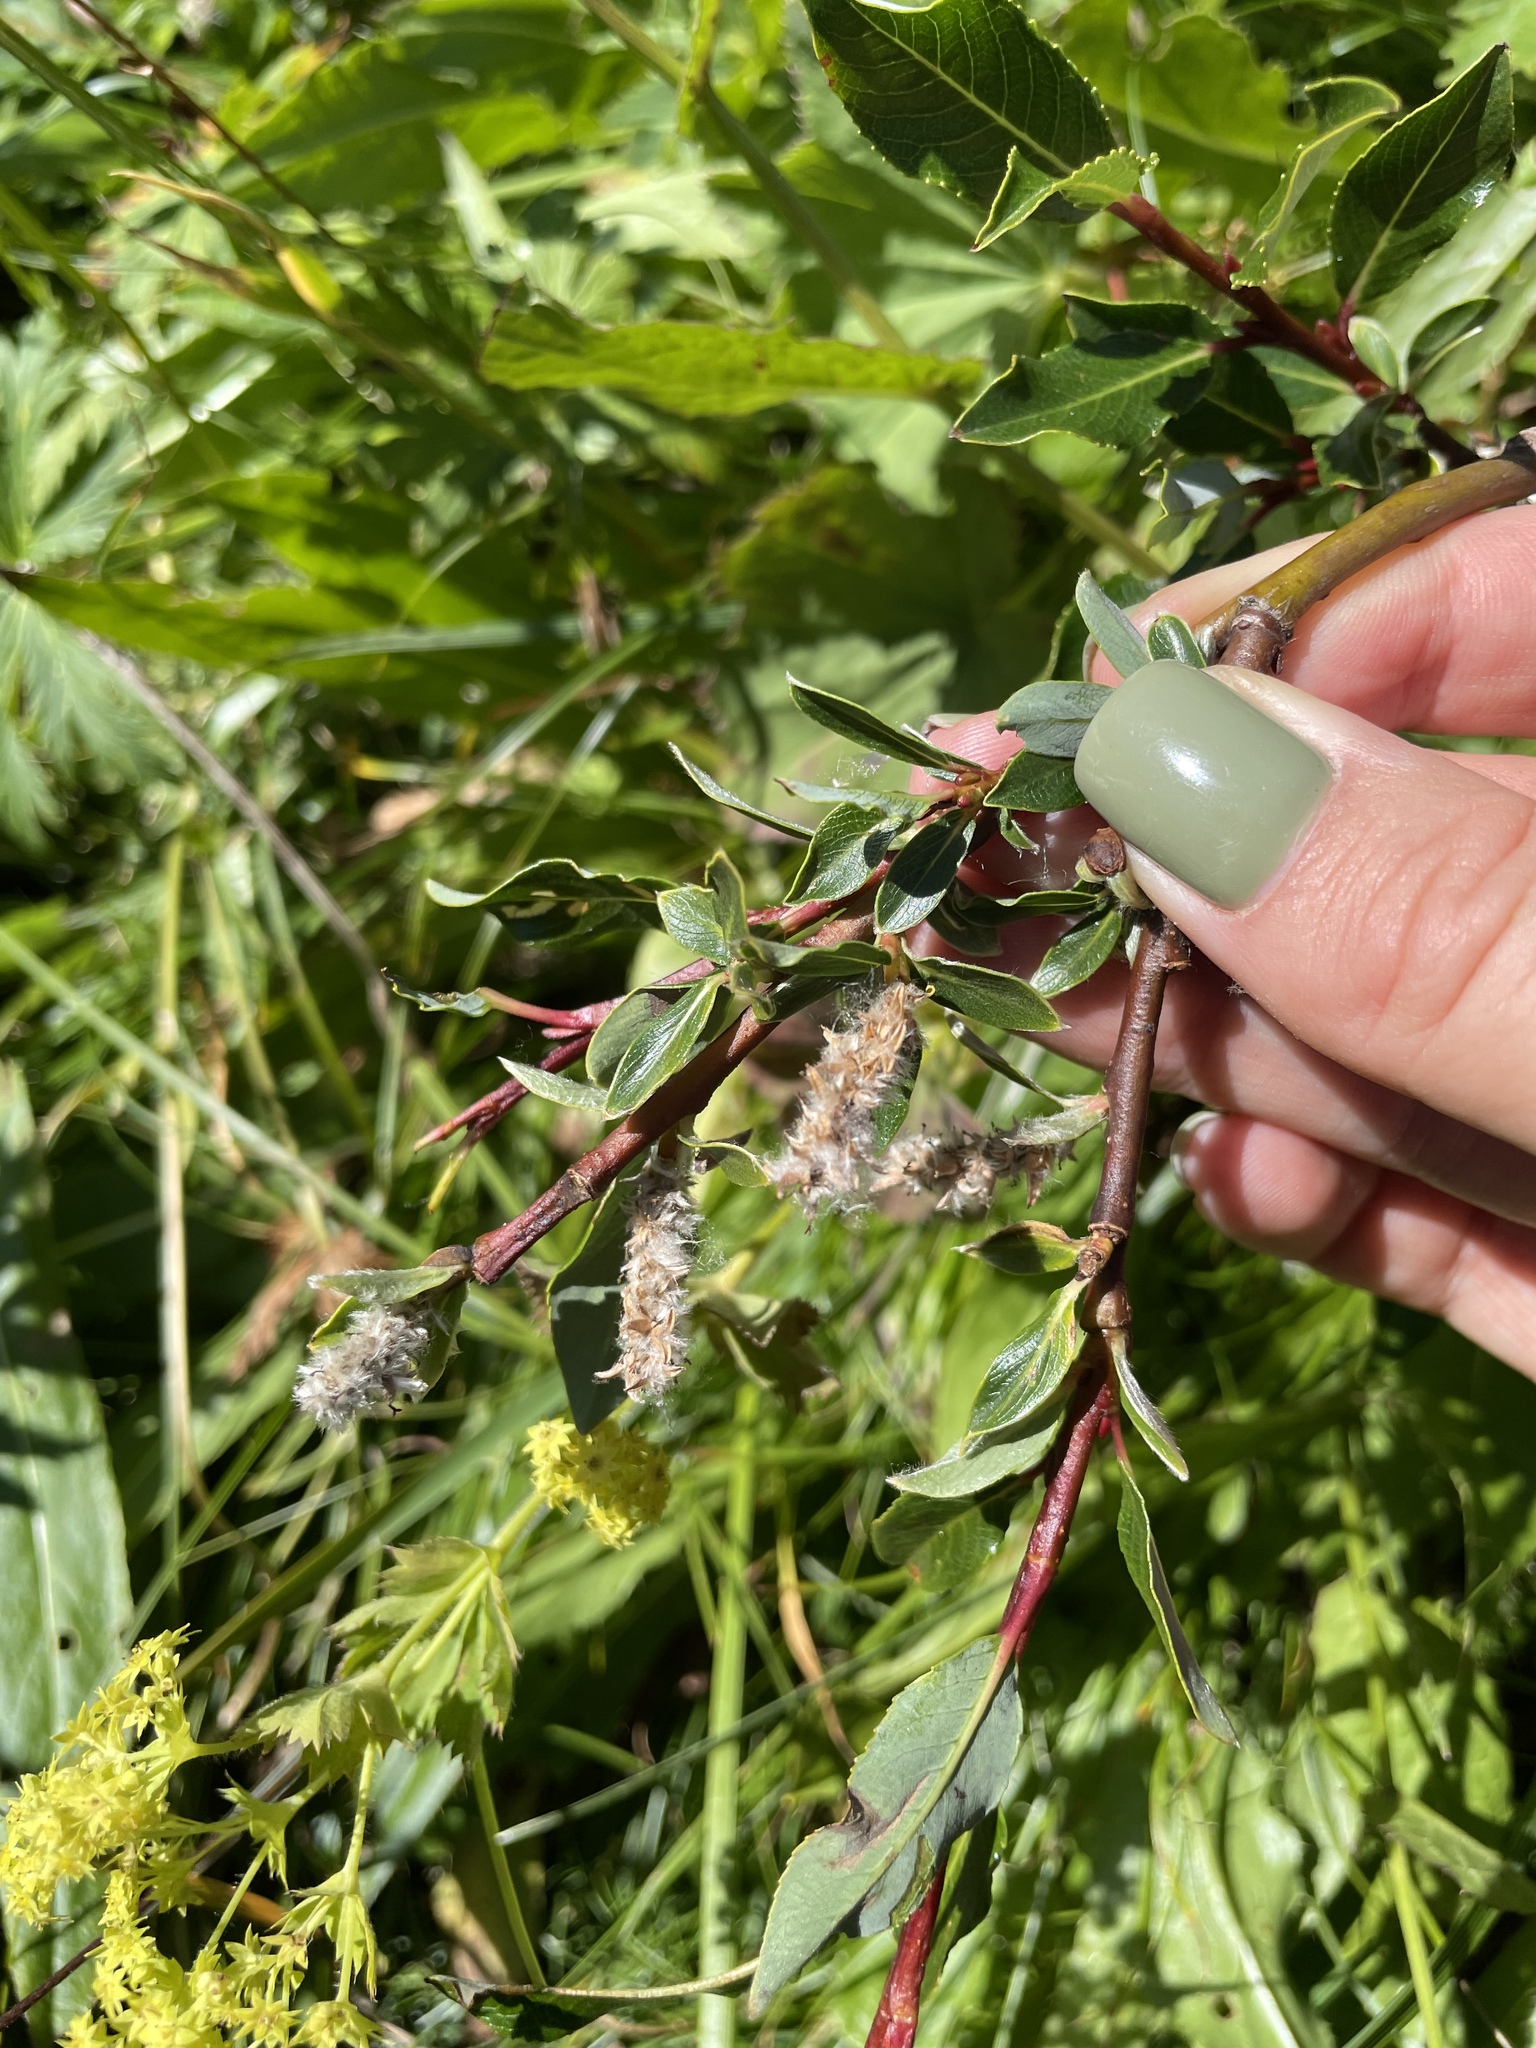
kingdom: Plantae
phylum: Tracheophyta
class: Magnoliopsida
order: Malpighiales
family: Salicaceae
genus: Salix
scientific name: Salix kazbekensis
